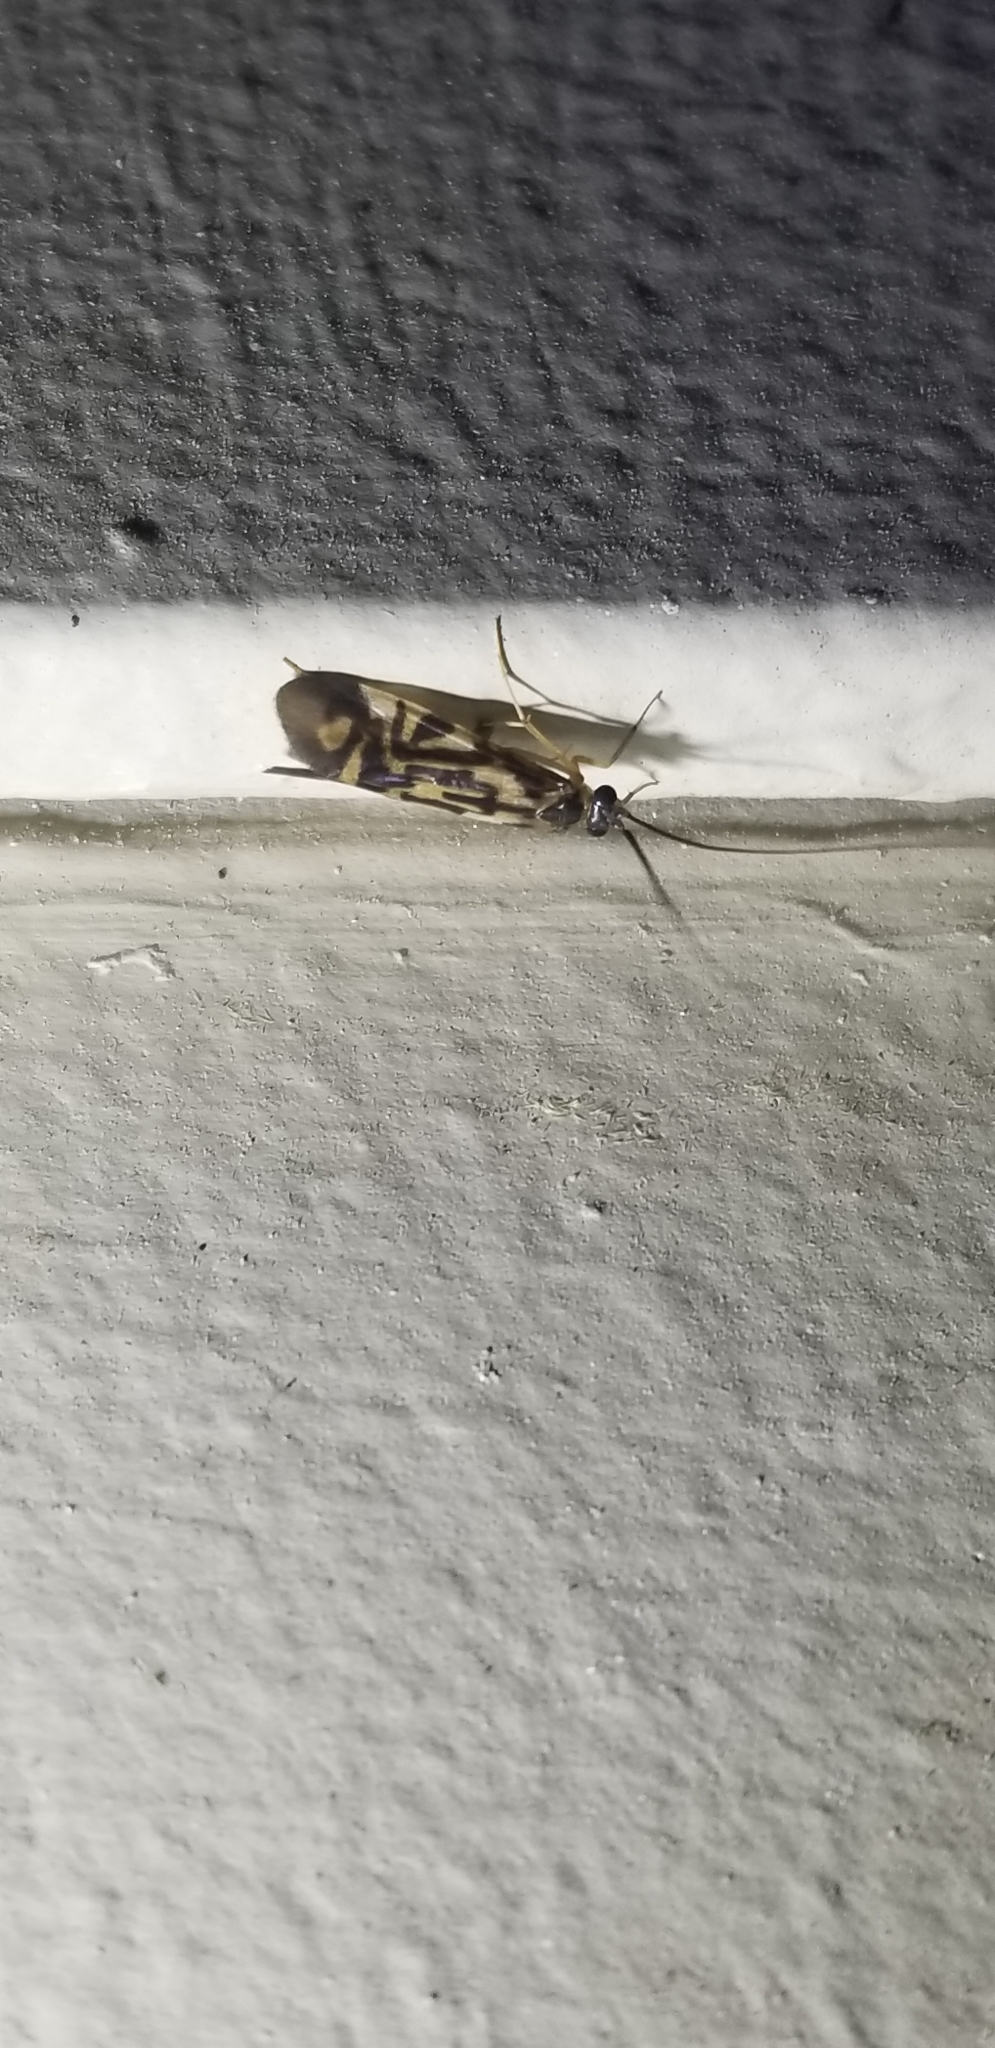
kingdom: Animalia
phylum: Arthropoda
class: Insecta
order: Trichoptera
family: Hydropsychidae
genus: Macrostemum
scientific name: Macrostemum carolina
